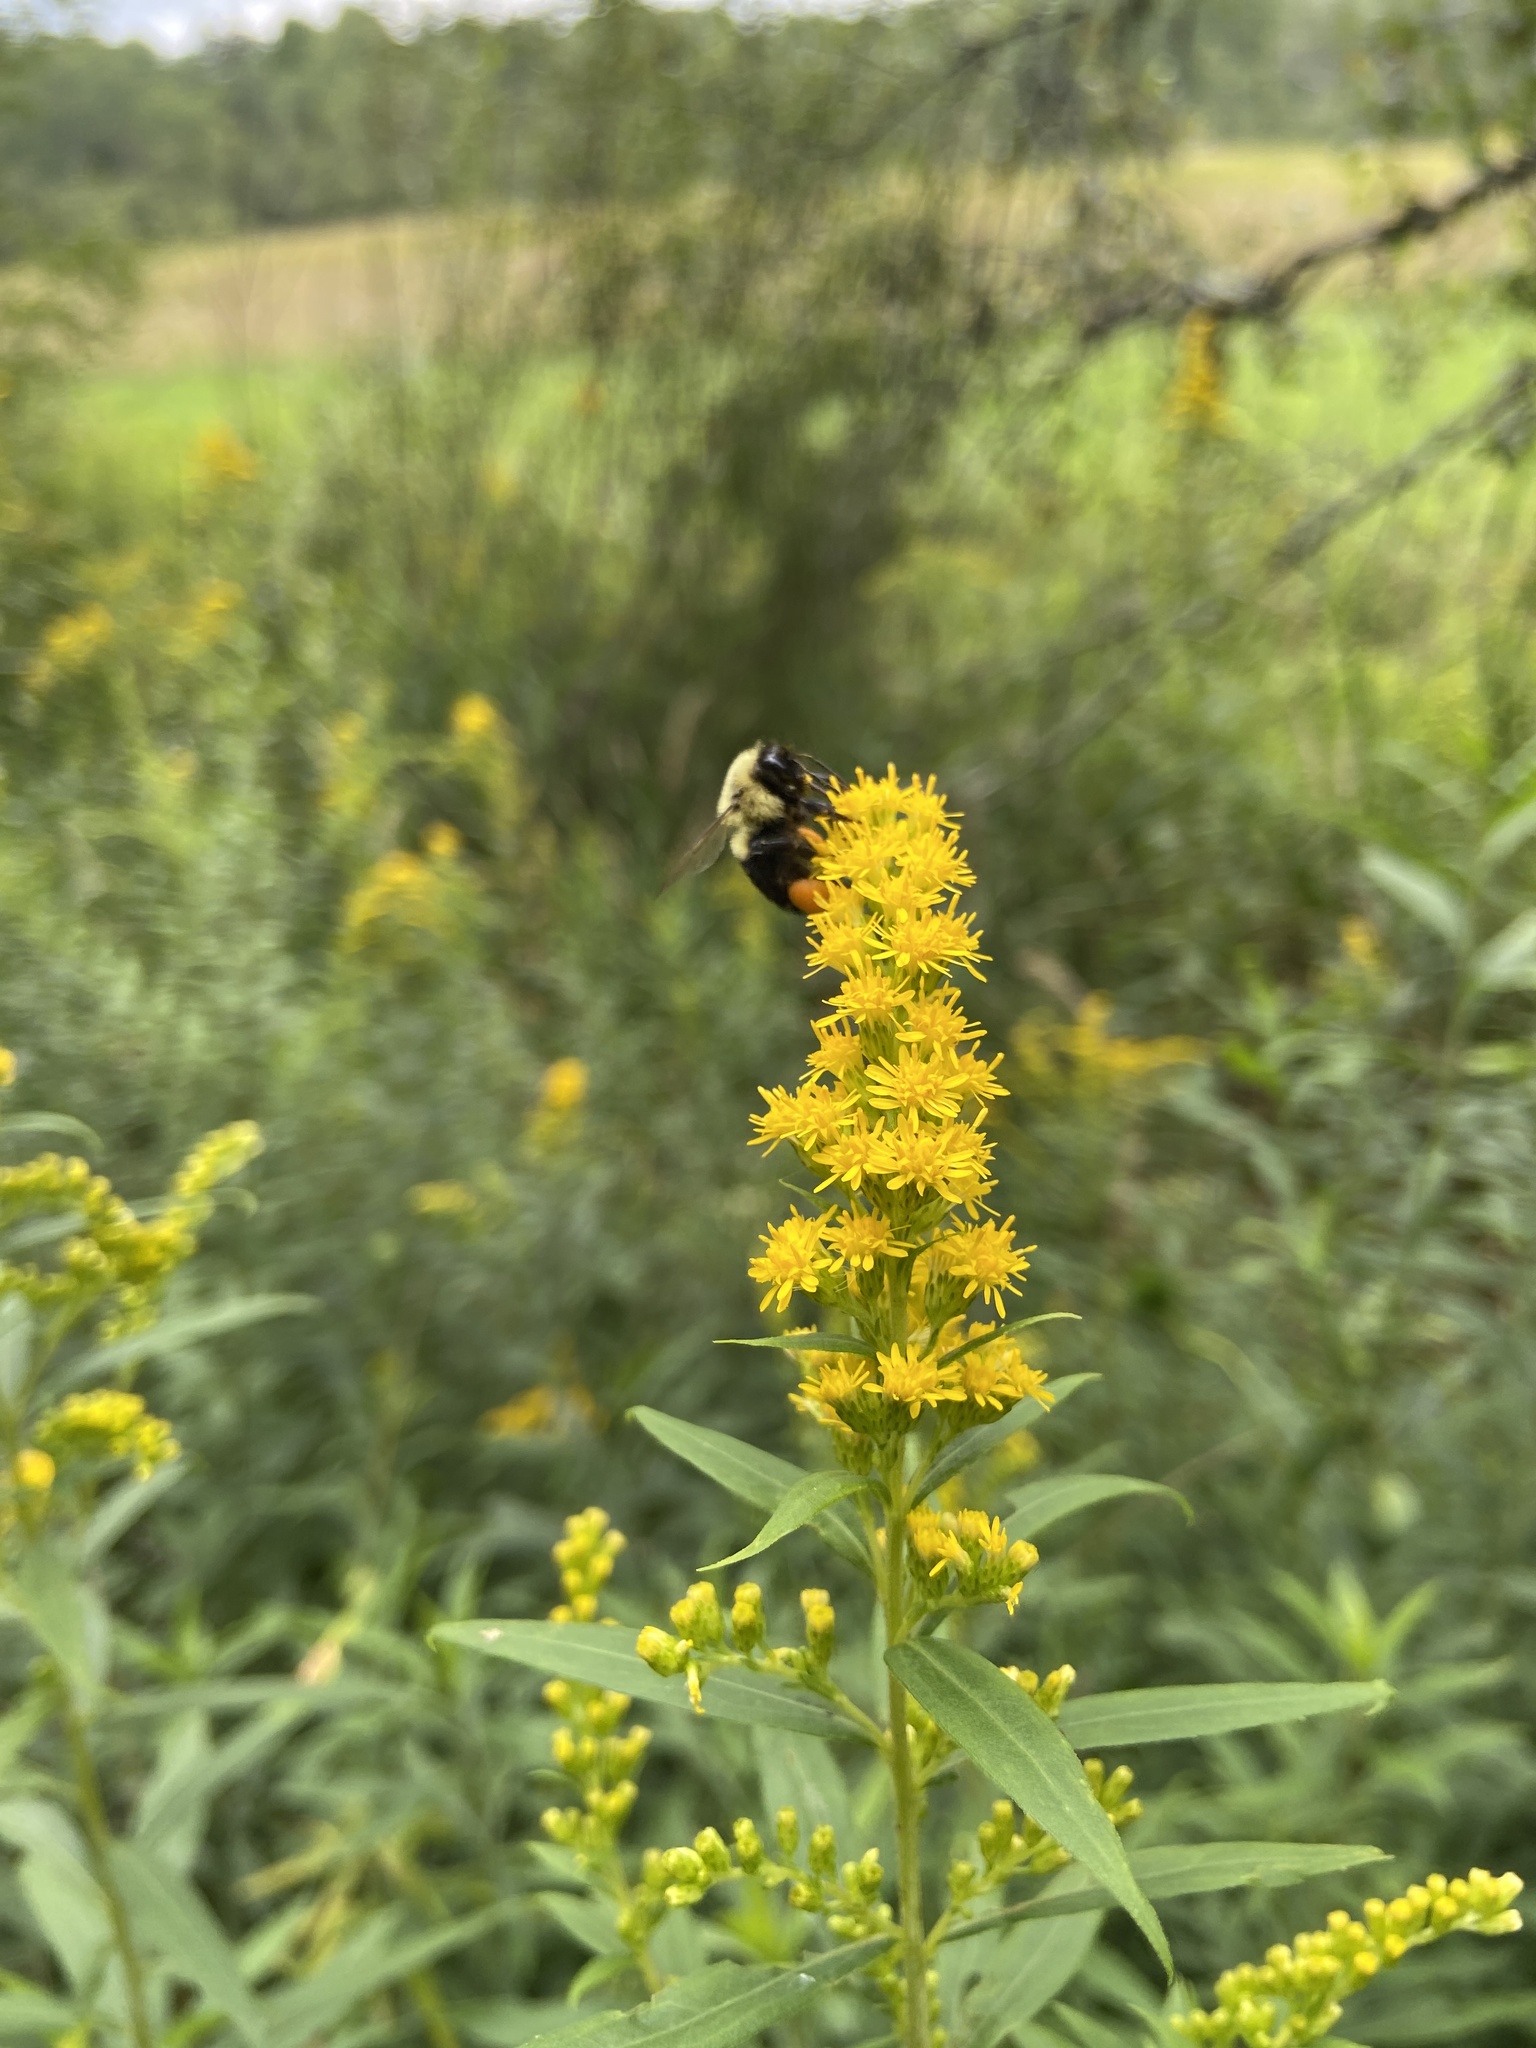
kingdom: Animalia
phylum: Arthropoda
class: Insecta
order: Hymenoptera
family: Apidae
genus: Bombus
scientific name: Bombus impatiens
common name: Common eastern bumble bee
